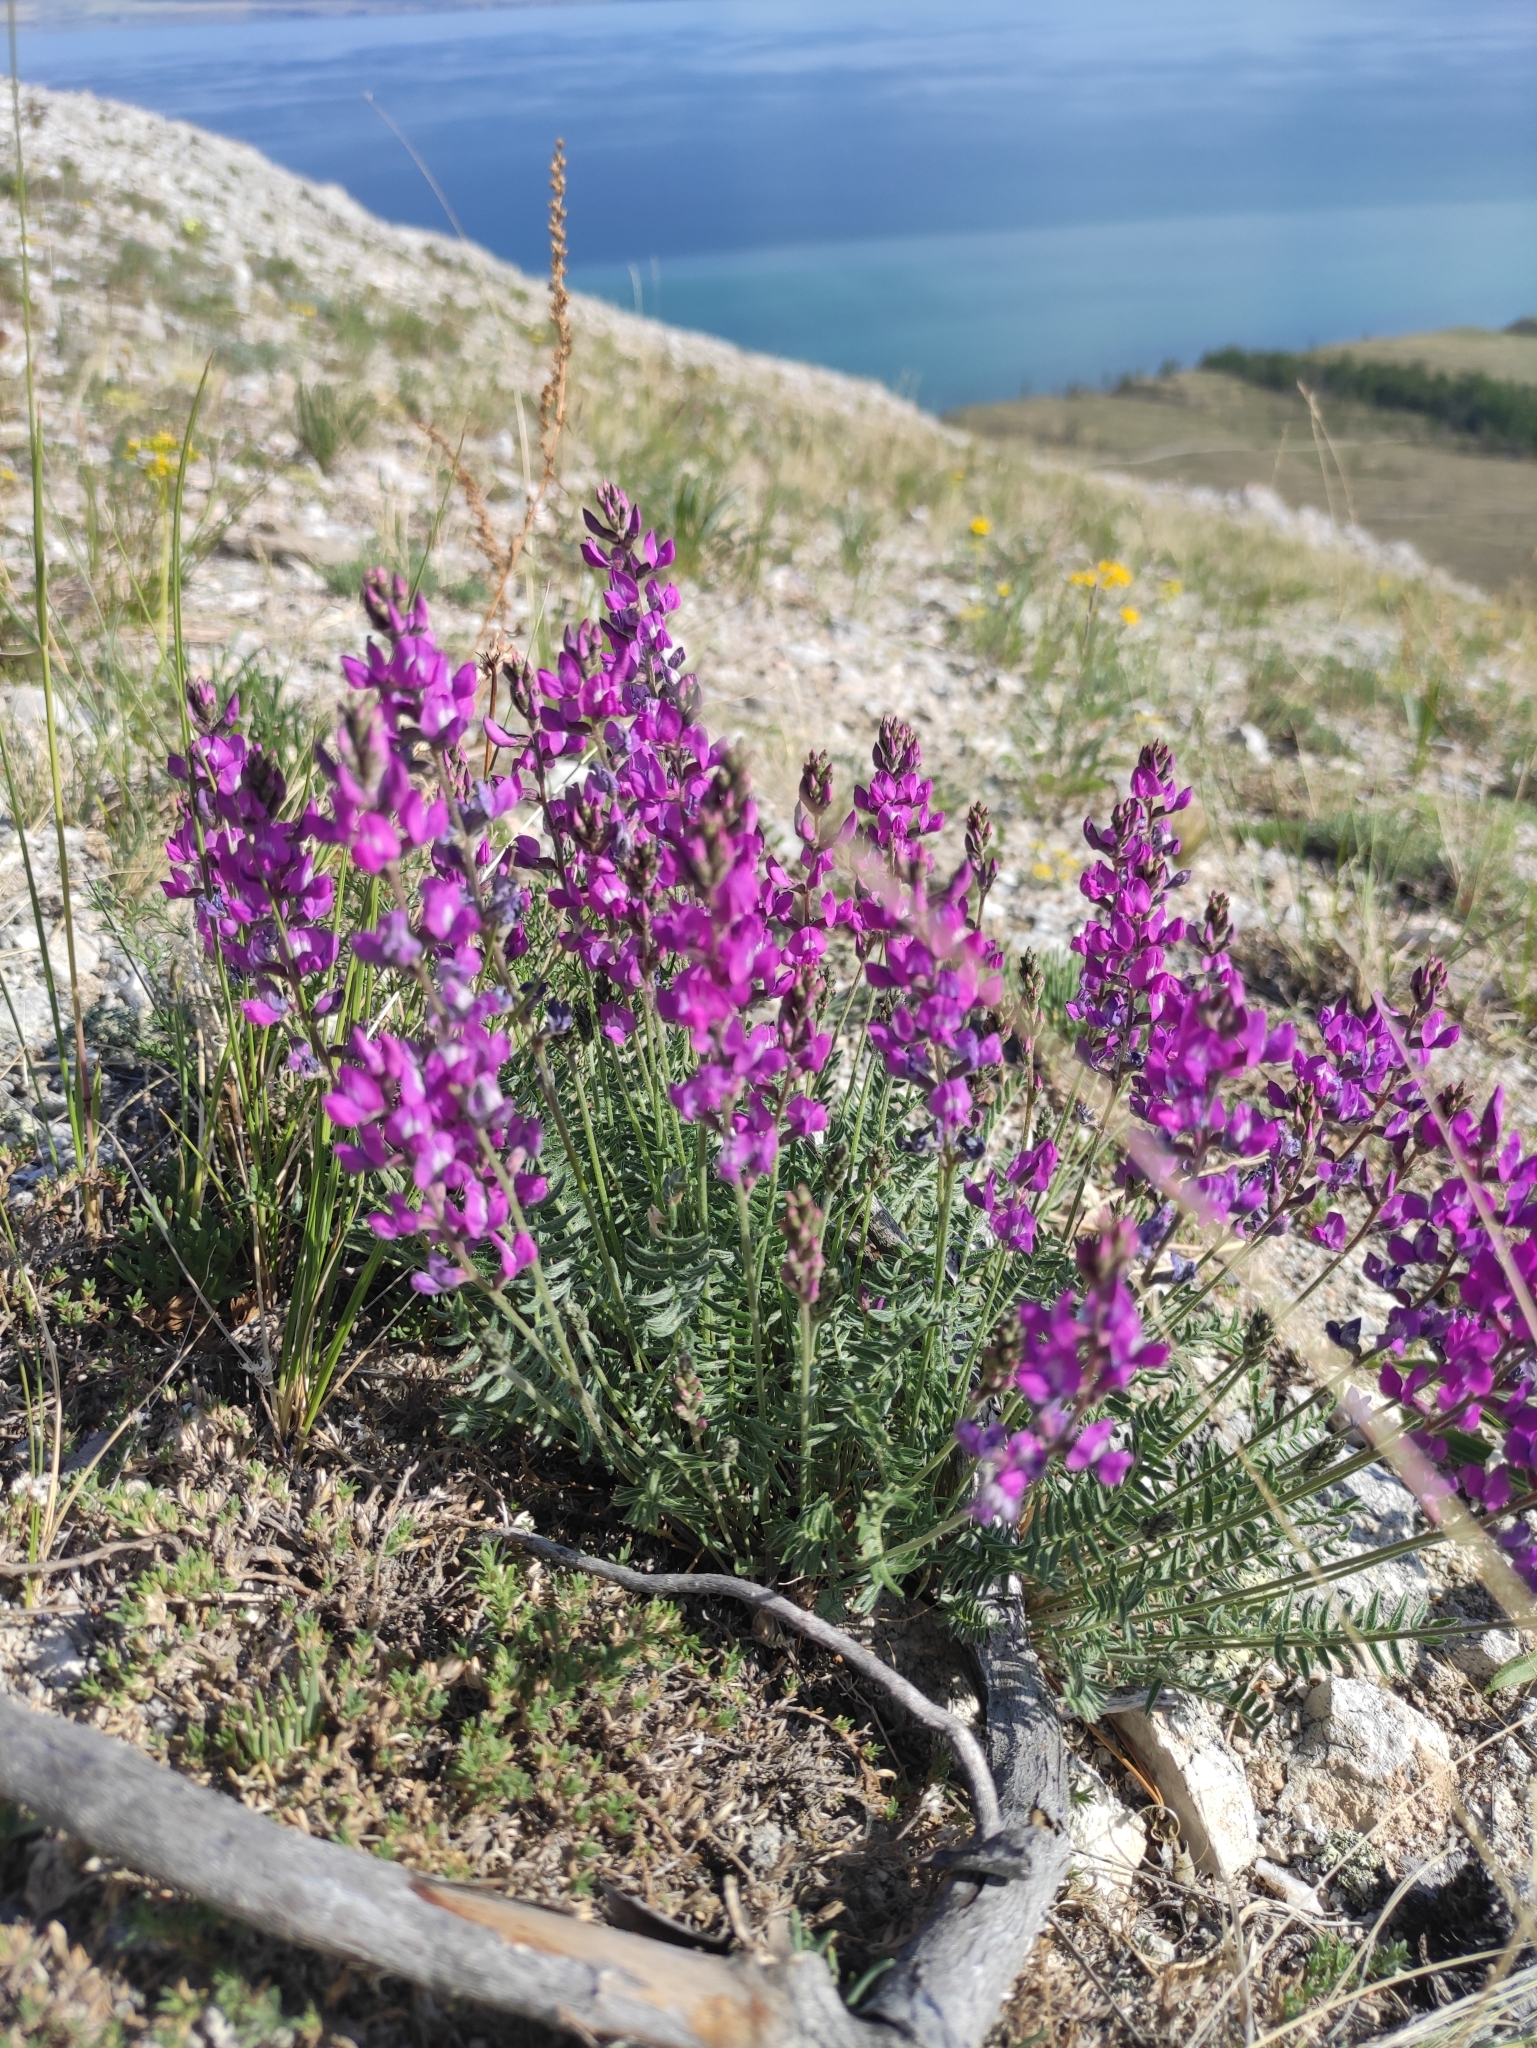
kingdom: Plantae
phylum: Tracheophyta
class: Magnoliopsida
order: Fabales
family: Fabaceae
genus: Oxytropis
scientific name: Oxytropis coerulea
